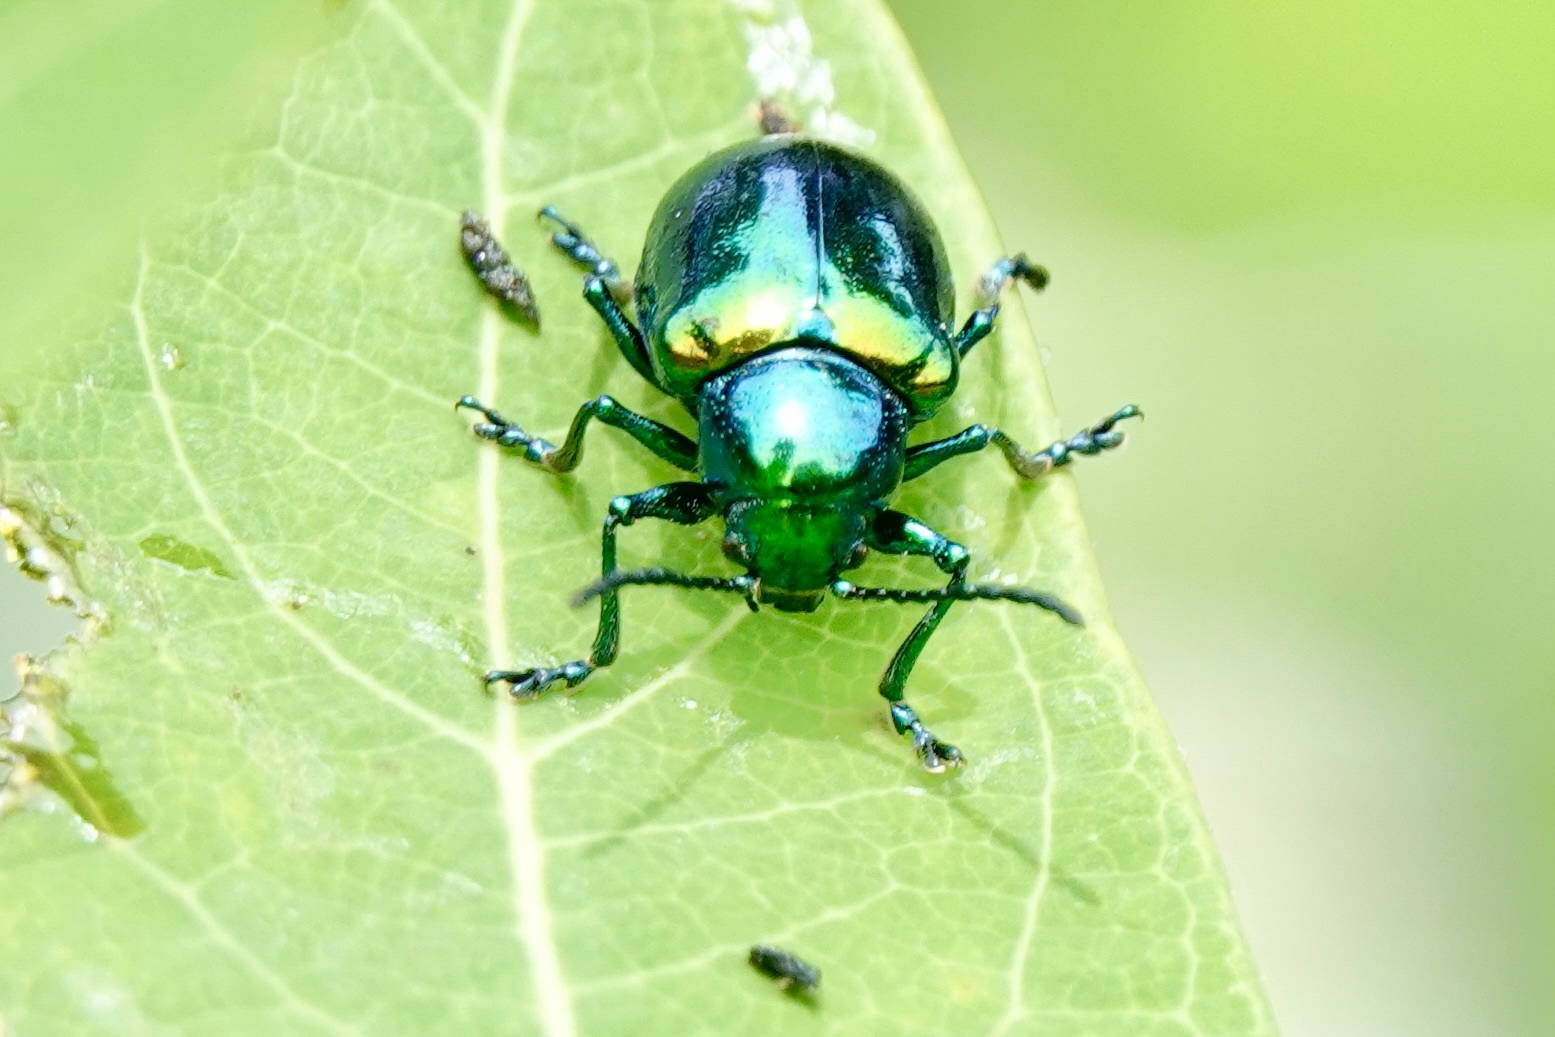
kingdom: Animalia
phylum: Arthropoda
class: Insecta
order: Coleoptera
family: Chrysomelidae
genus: Chrysochus
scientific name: Chrysochus auratus
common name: Dogbane leaf beetle
